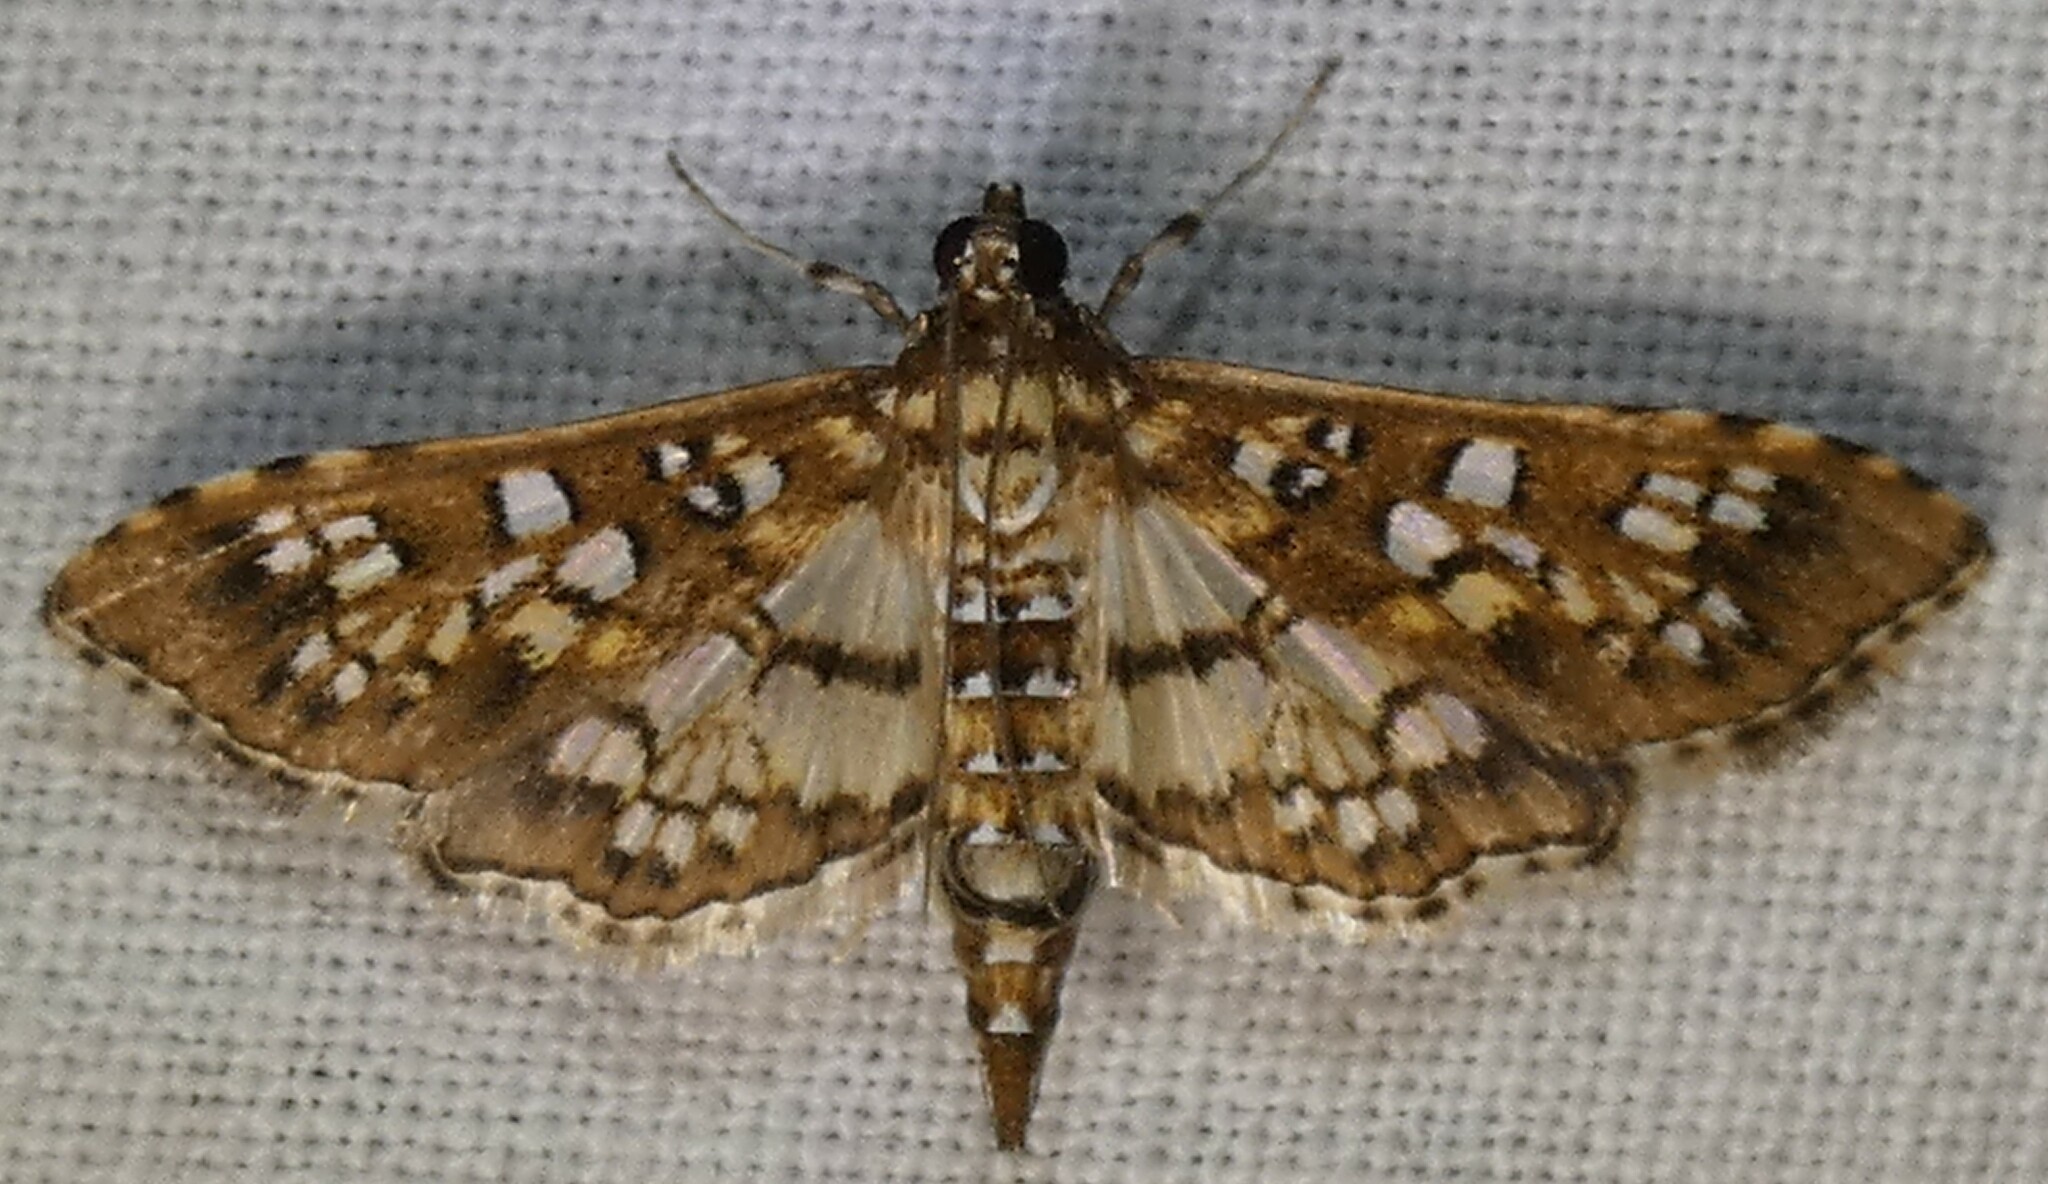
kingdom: Animalia
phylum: Arthropoda
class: Insecta
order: Lepidoptera
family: Crambidae
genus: Samea
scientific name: Samea ecclesialis
